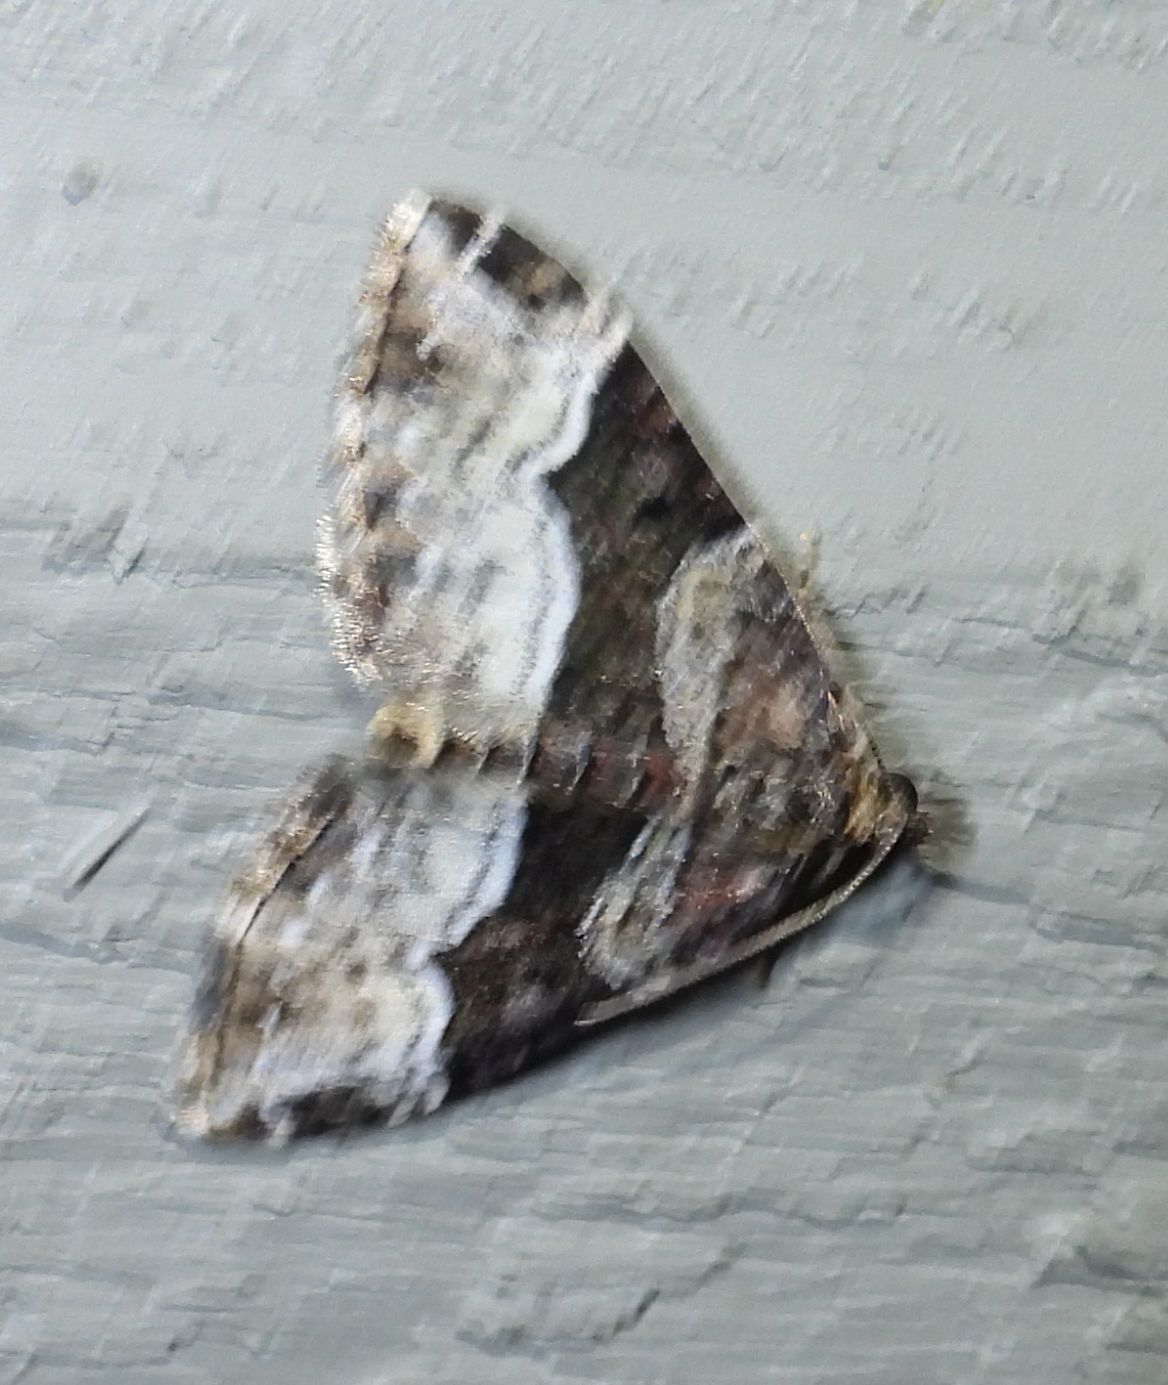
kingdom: Animalia
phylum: Arthropoda
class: Insecta
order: Lepidoptera
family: Geometridae
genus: Euphyia
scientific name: Euphyia intermediata
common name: Sharp-angled carpet
